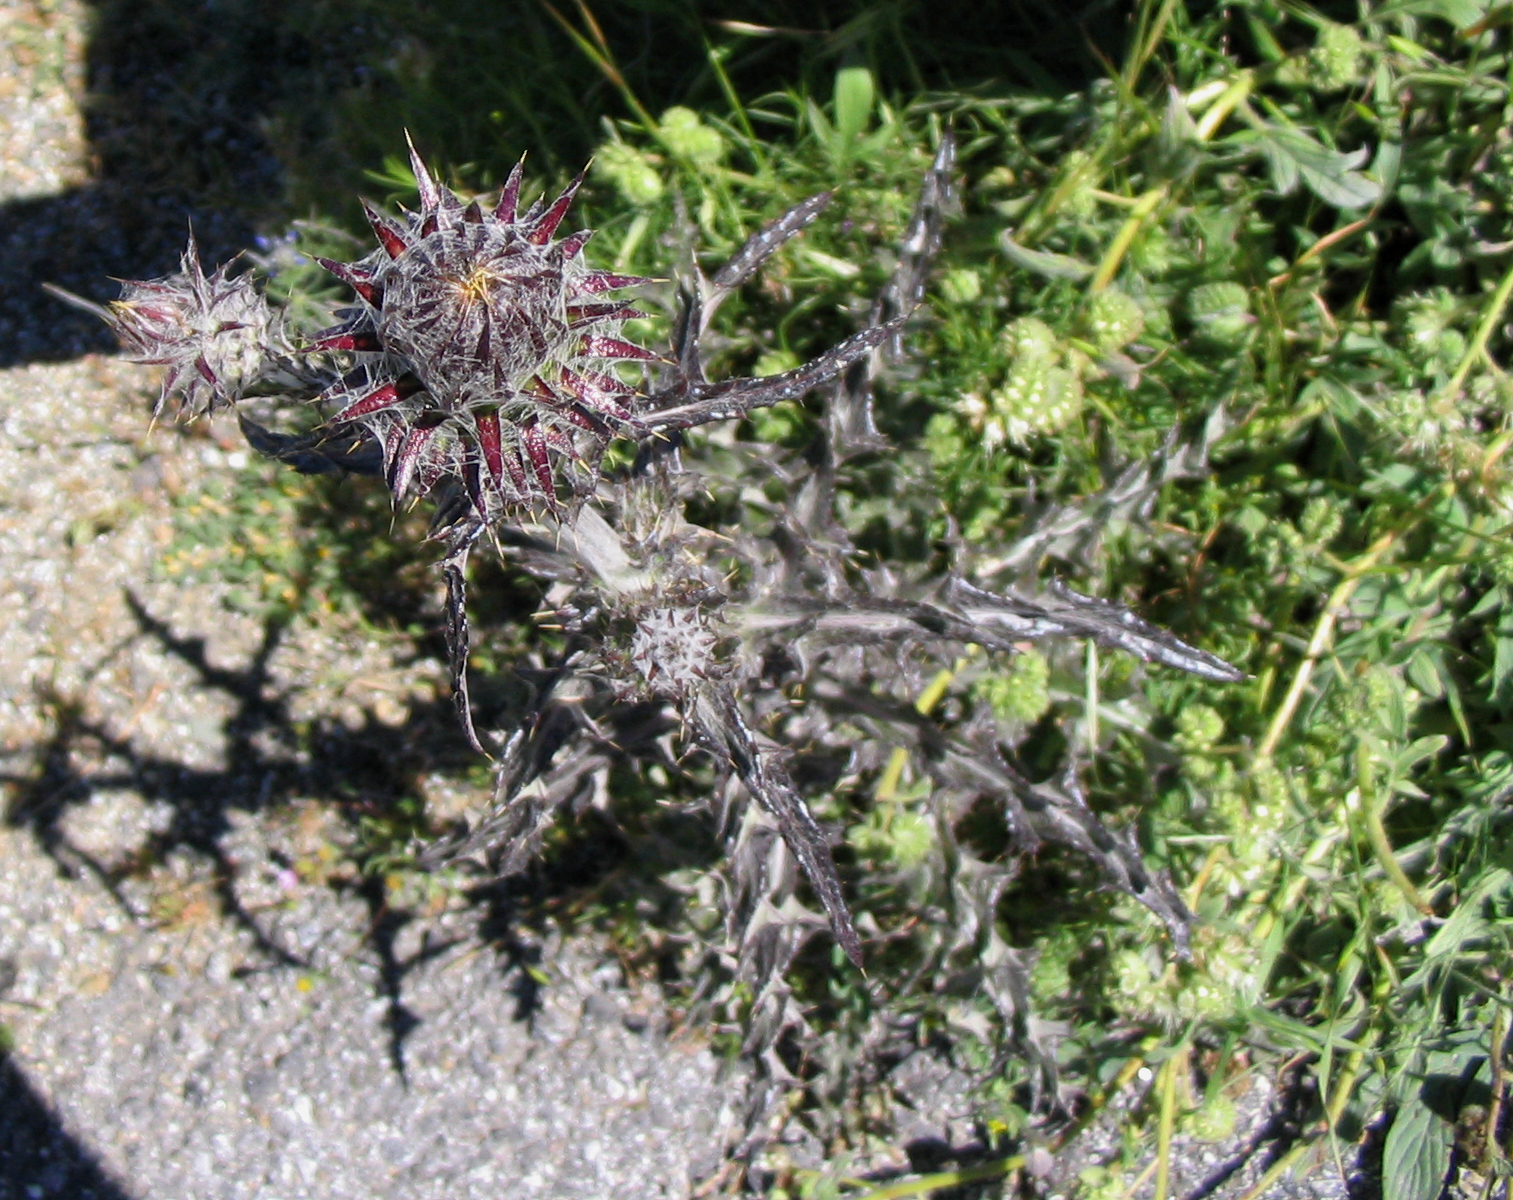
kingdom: Plantae
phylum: Tracheophyta
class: Magnoliopsida
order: Asterales
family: Asteraceae
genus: Cirsium
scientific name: Cirsium occidentale
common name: Western thistle
